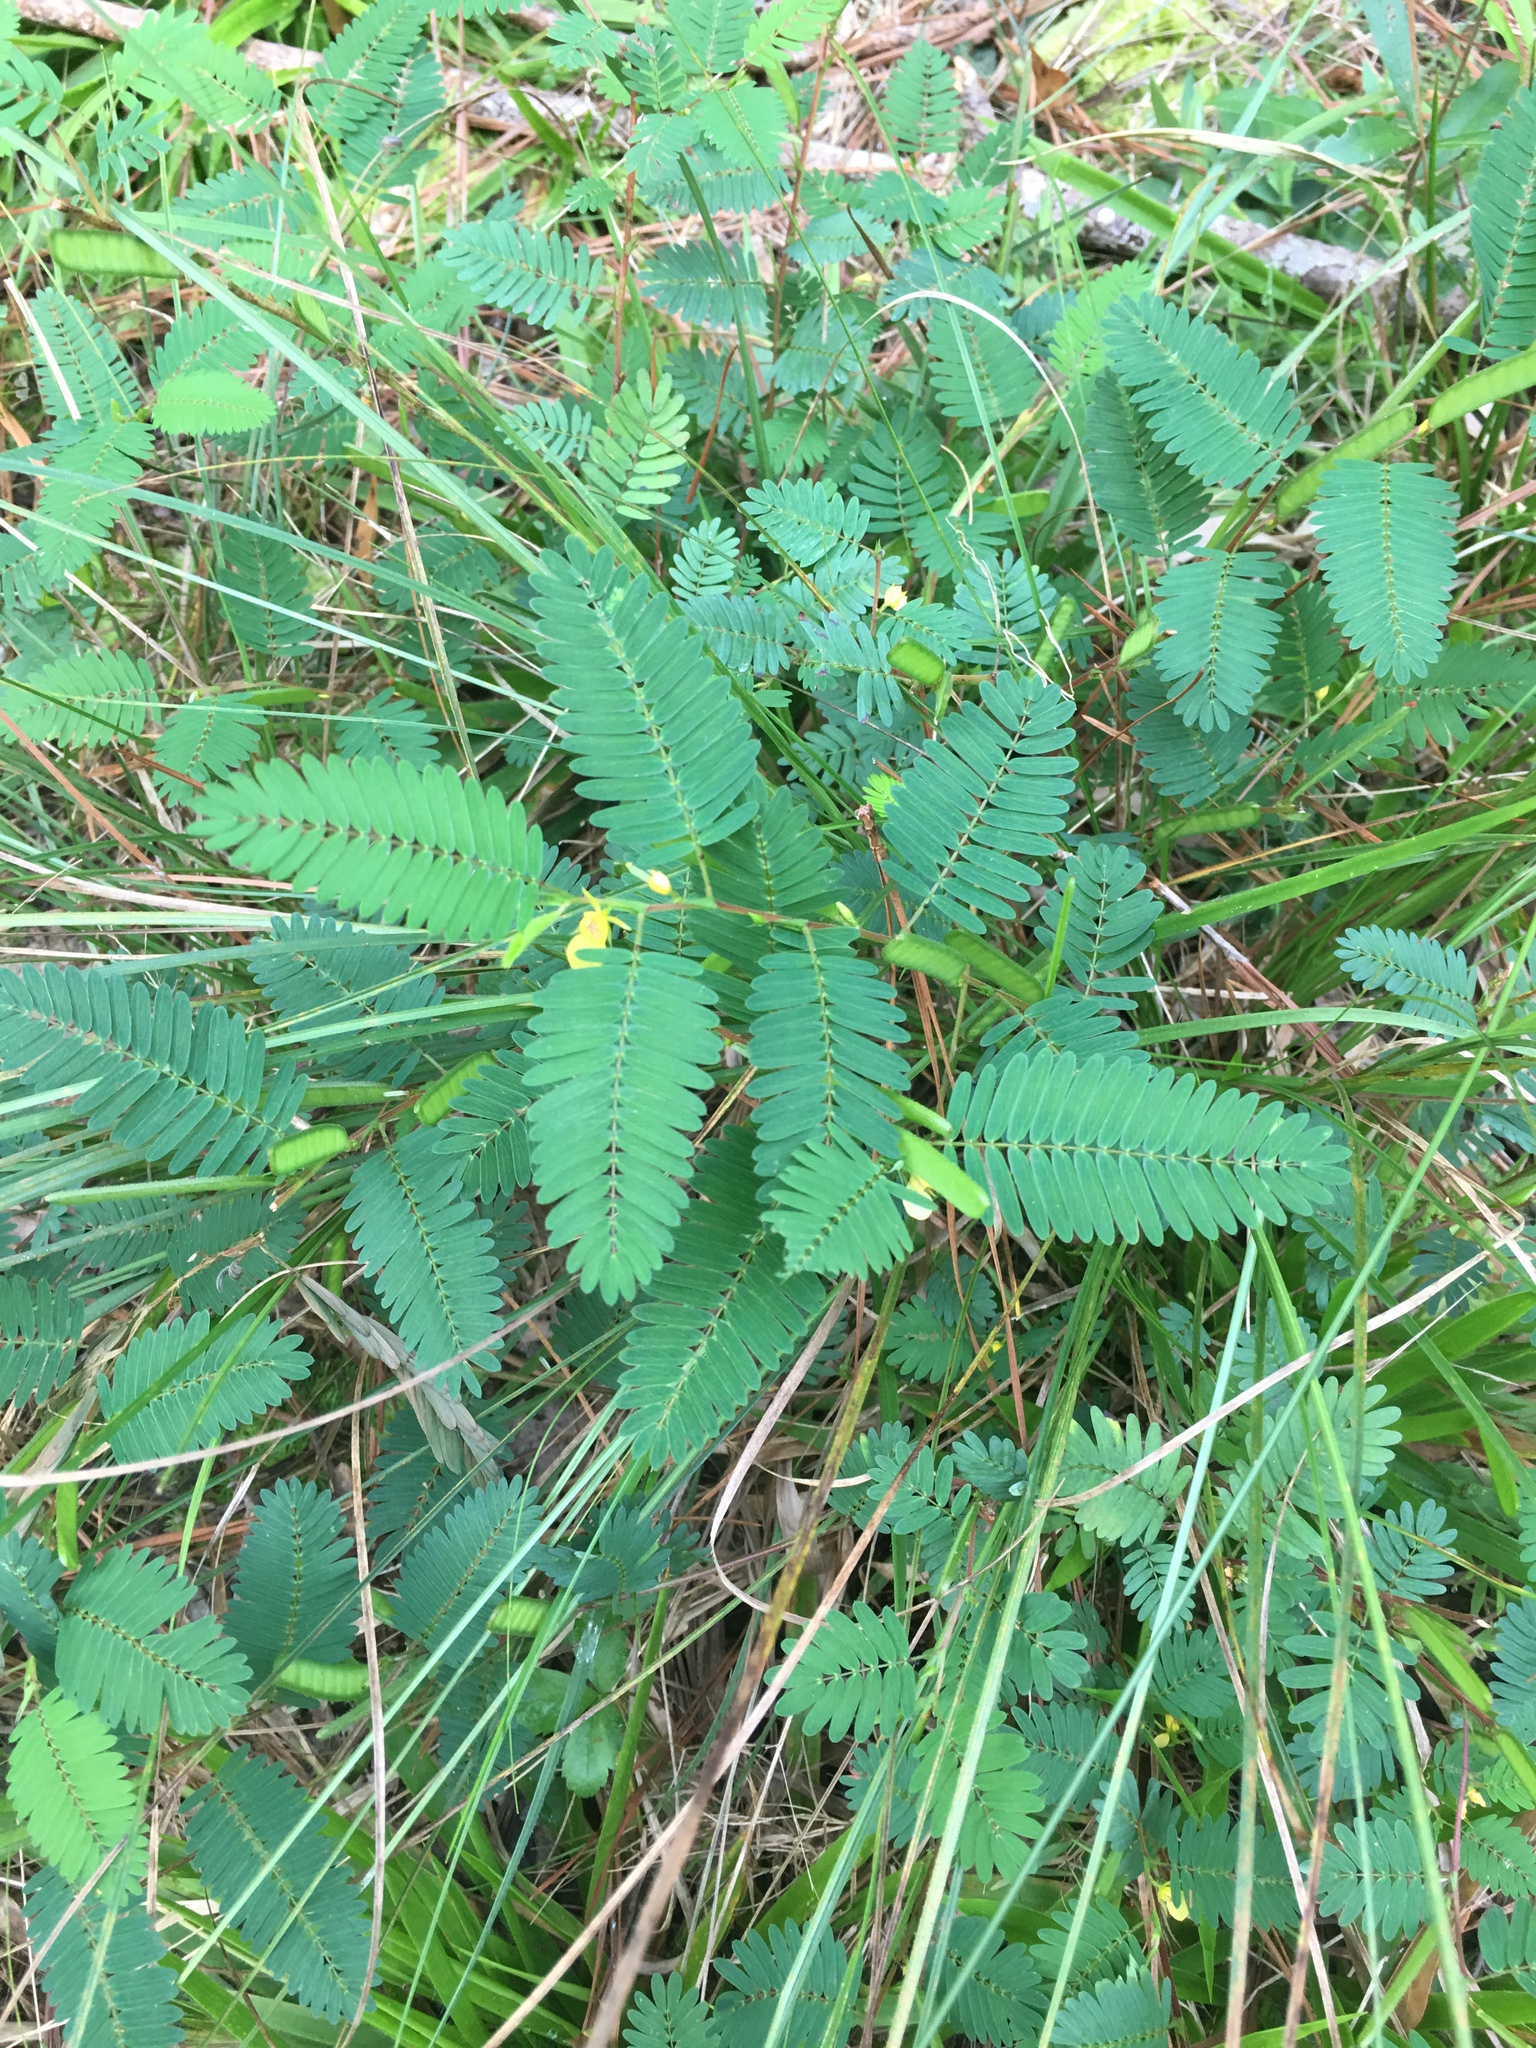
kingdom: Plantae
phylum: Tracheophyta
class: Magnoliopsida
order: Fabales
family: Fabaceae
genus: Chamaecrista
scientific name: Chamaecrista nictitans
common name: Sensitive cassia
